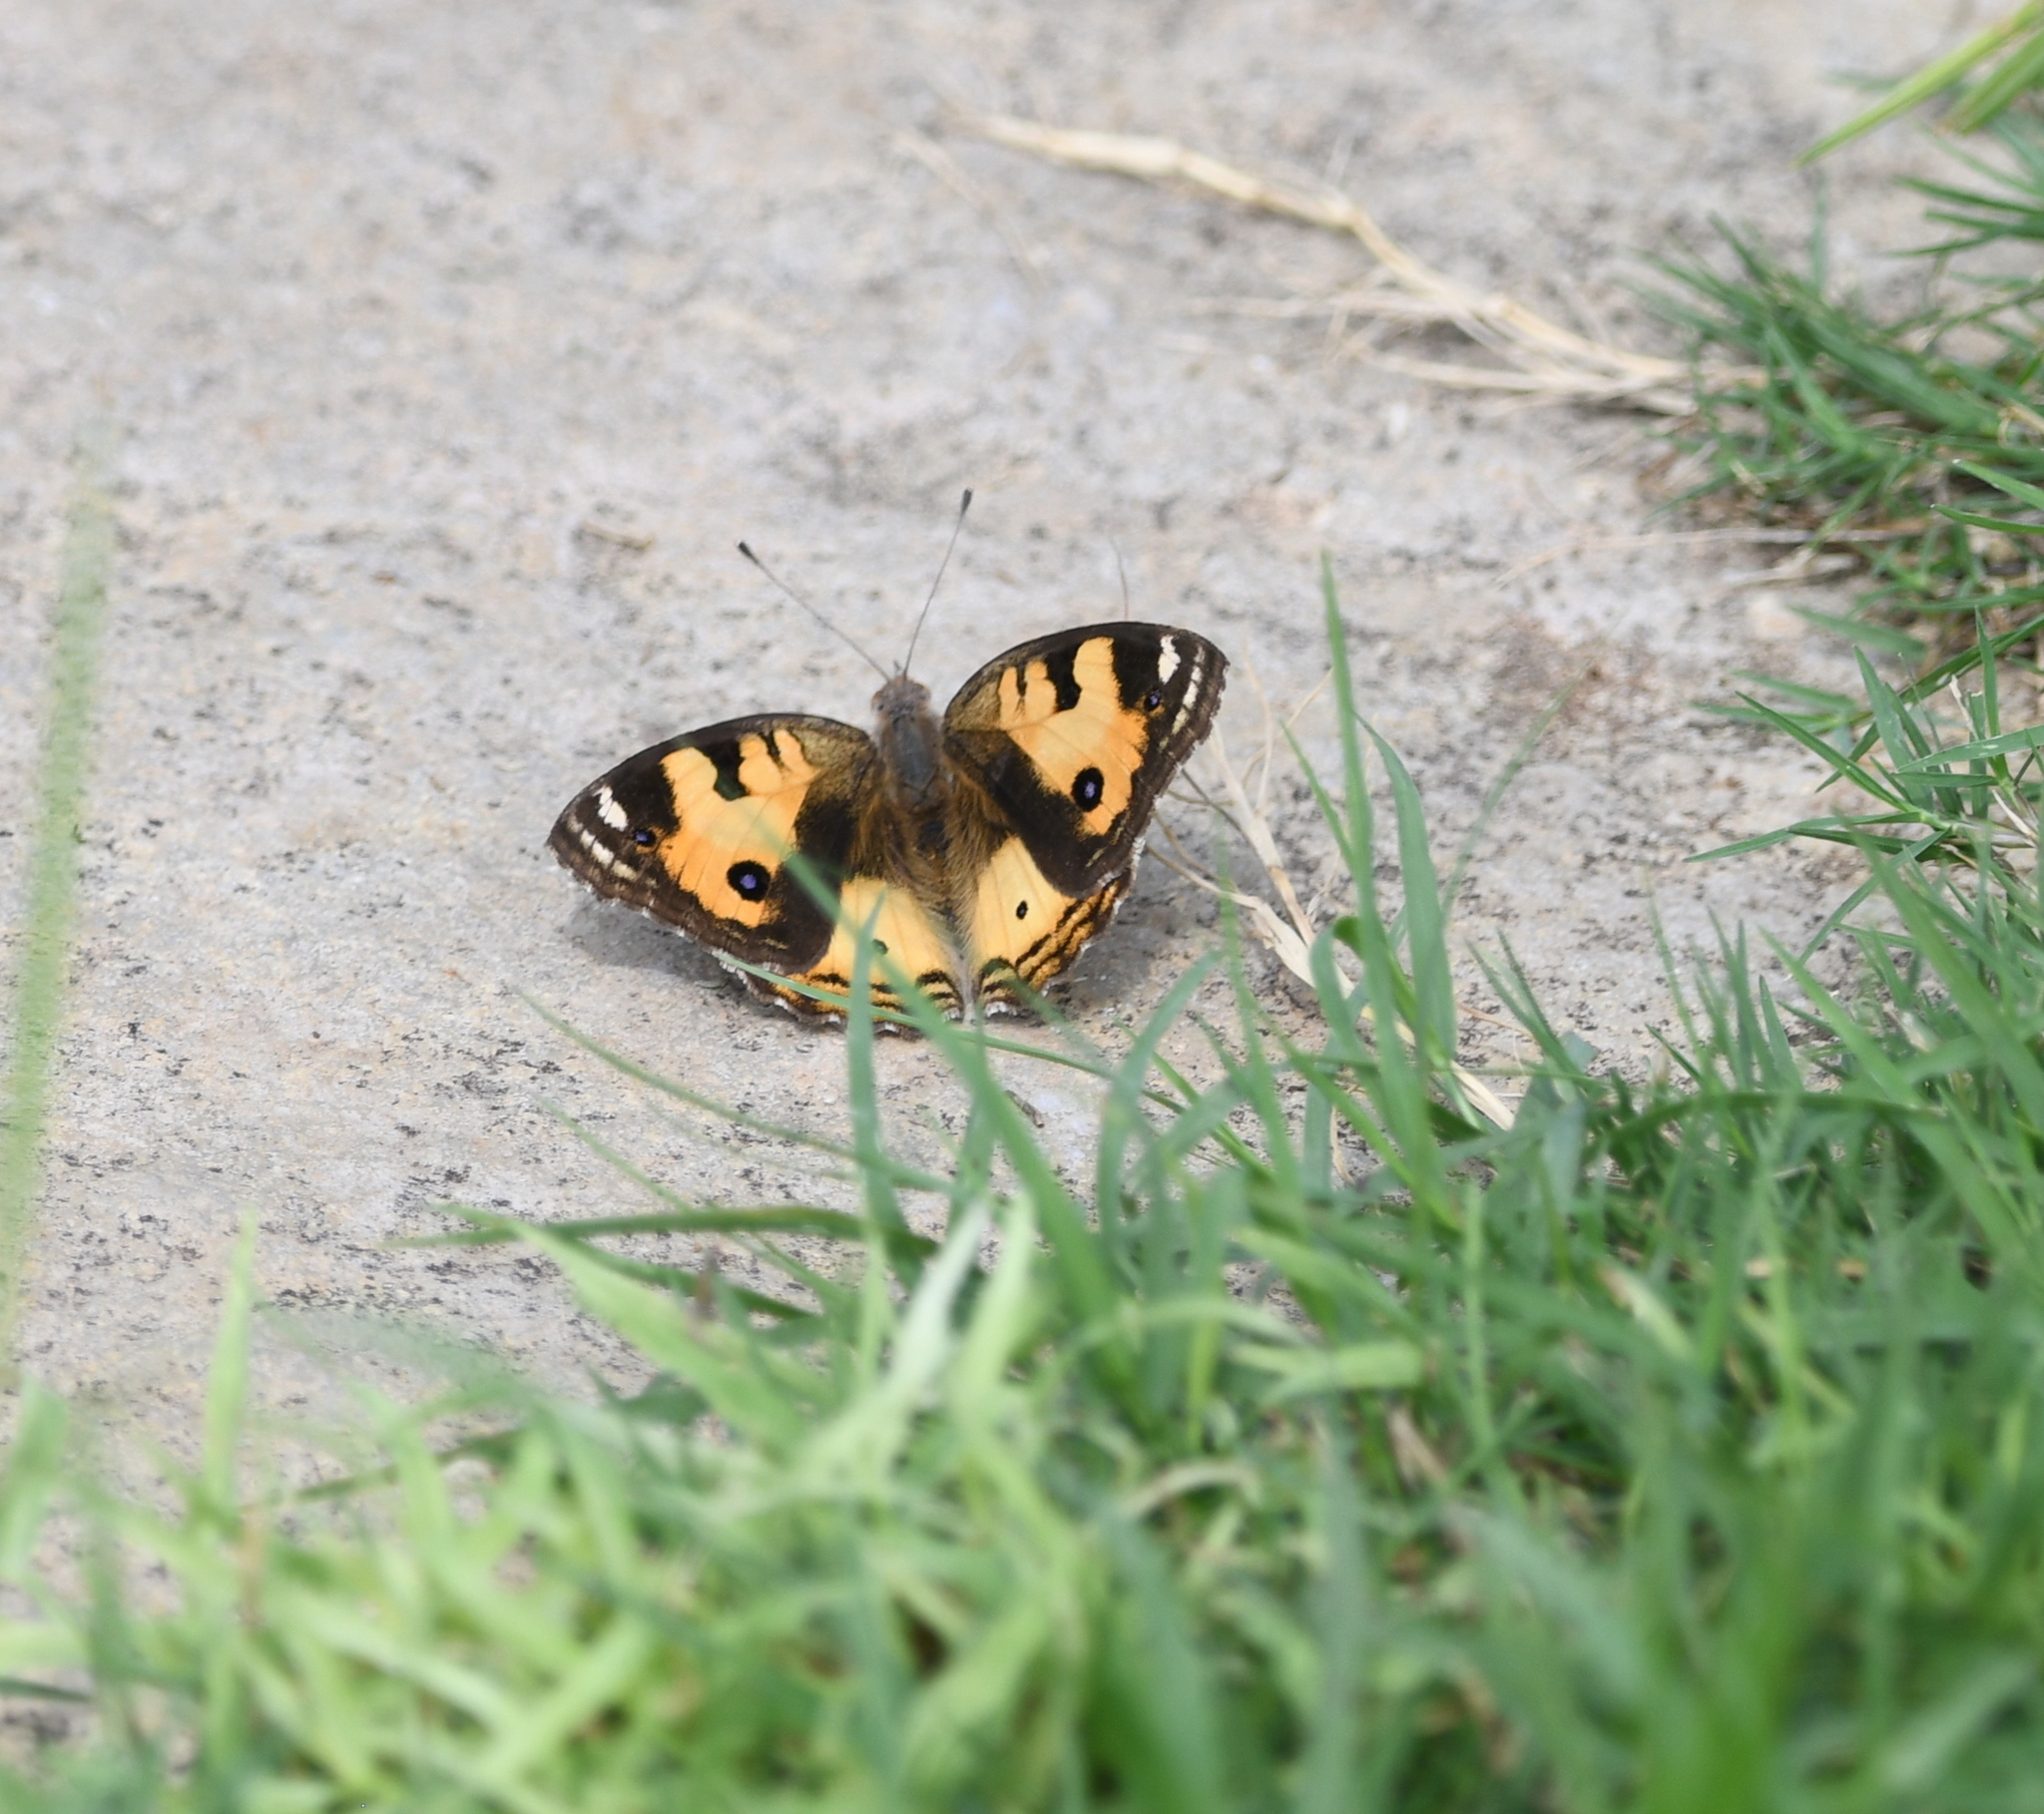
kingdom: Animalia
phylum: Arthropoda
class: Insecta
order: Lepidoptera
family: Nymphalidae
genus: Junonia
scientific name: Junonia hierta
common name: Yellow pansy
